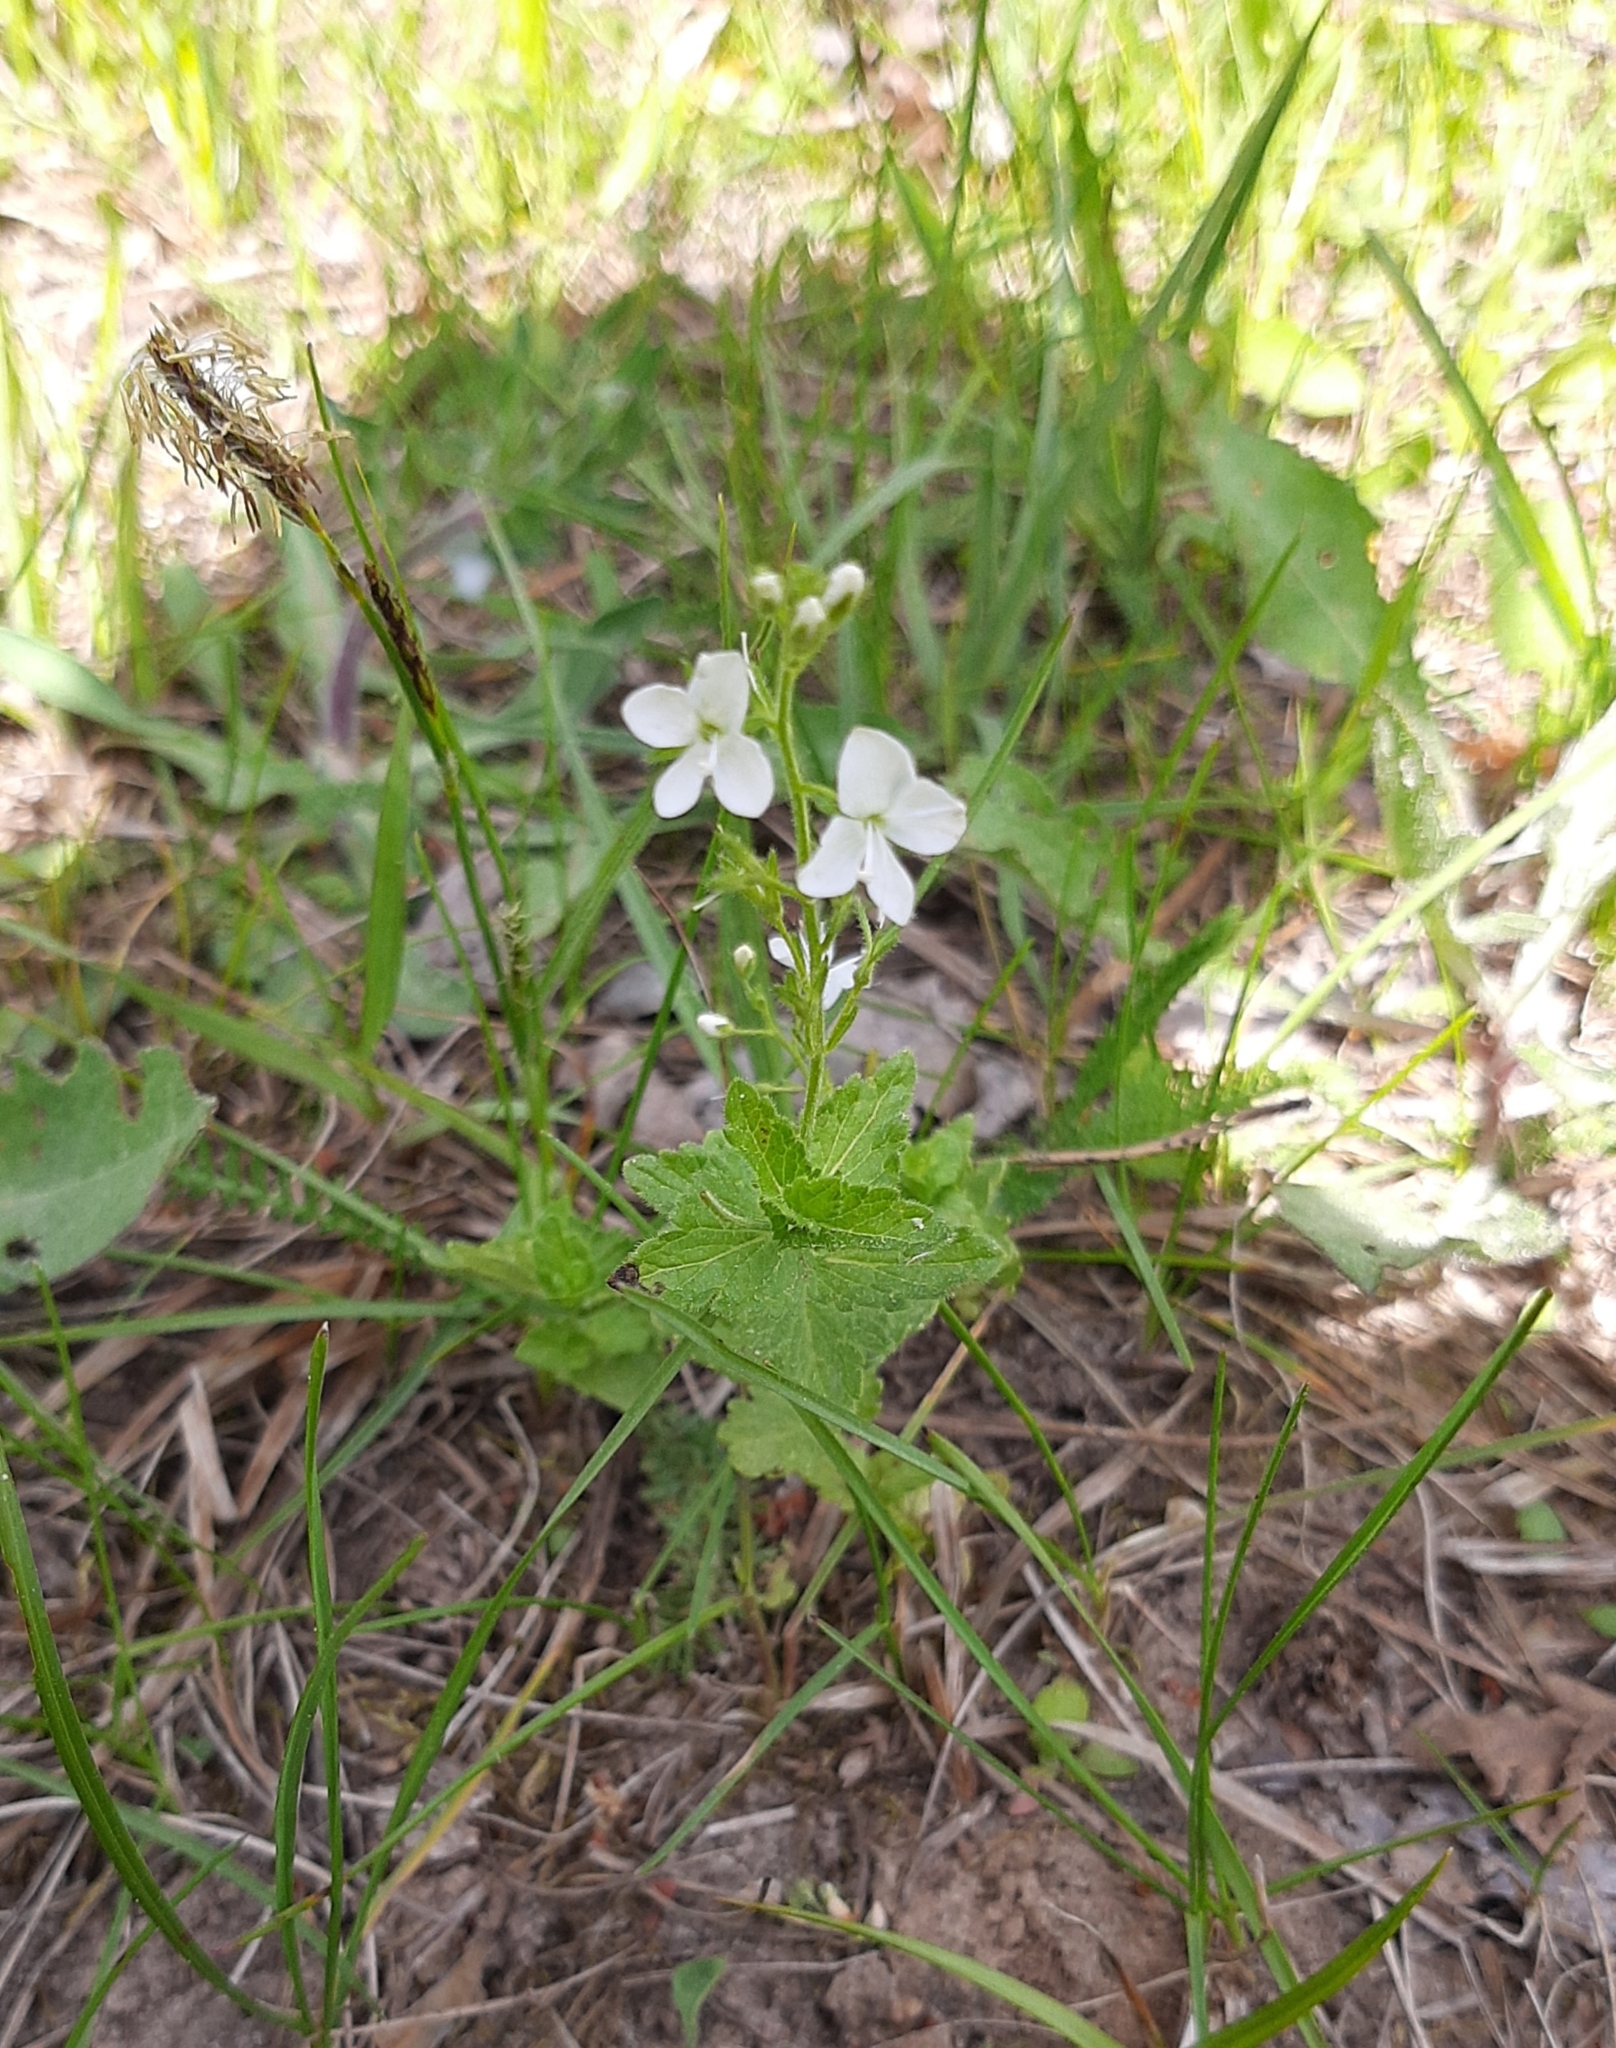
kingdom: Plantae
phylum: Tracheophyta
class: Magnoliopsida
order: Lamiales
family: Plantaginaceae
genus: Veronica
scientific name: Veronica chamaedrys
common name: Germander speedwell
